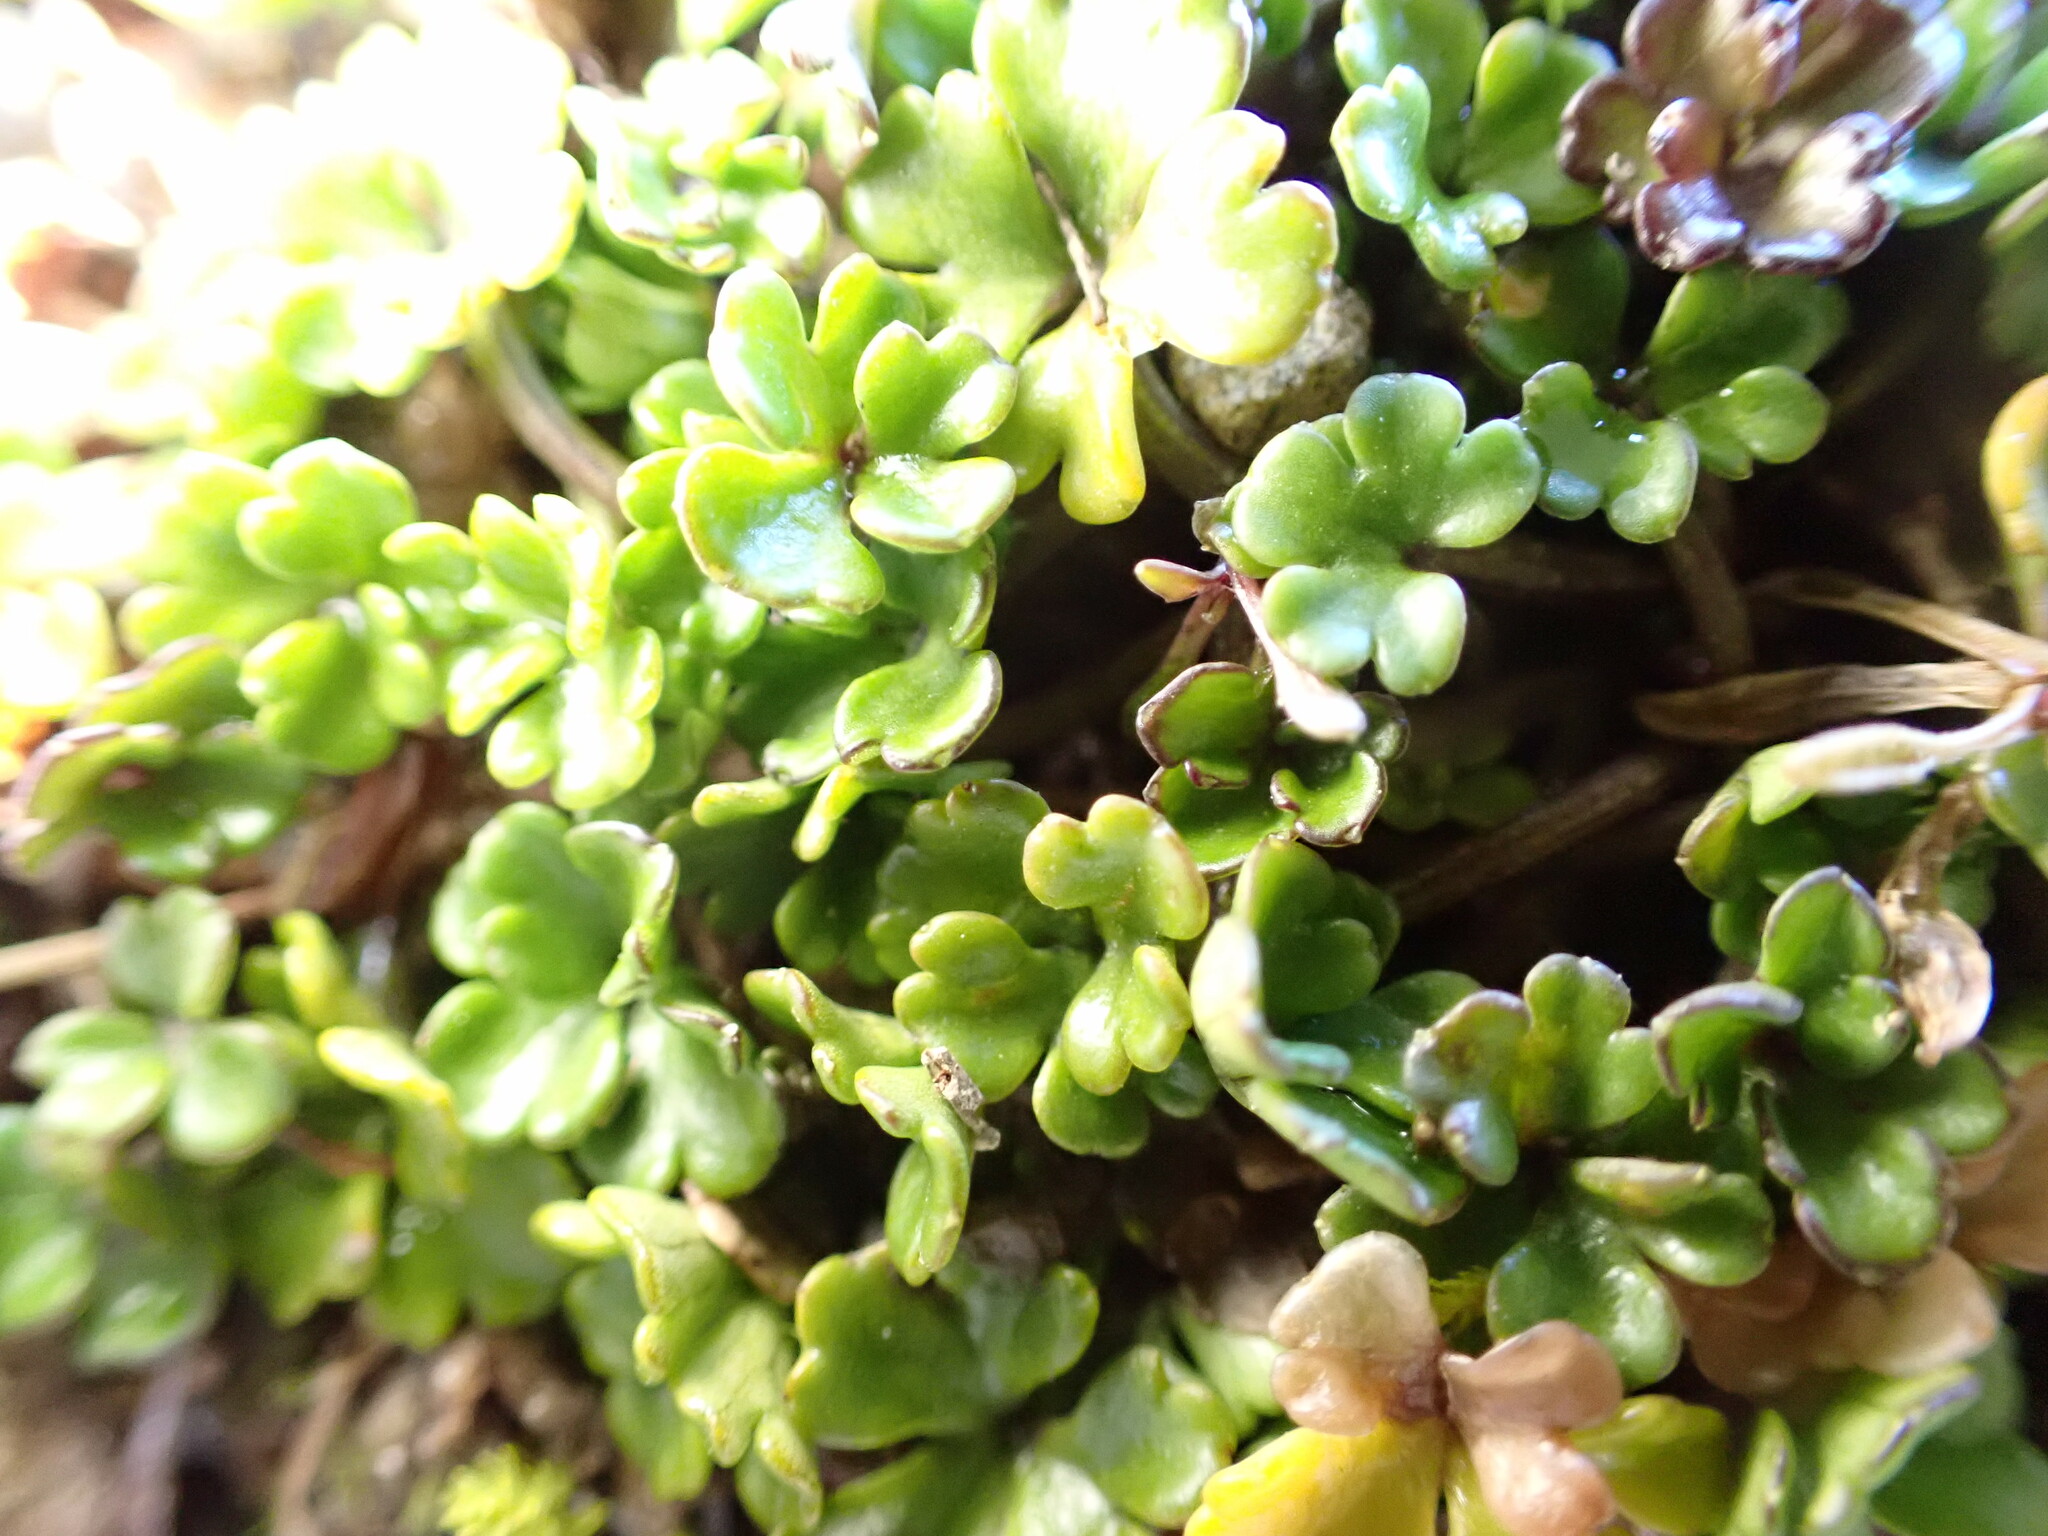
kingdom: Plantae
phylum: Tracheophyta
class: Magnoliopsida
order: Apiales
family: Apiaceae
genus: Azorella
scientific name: Azorella hydrocotyloides
